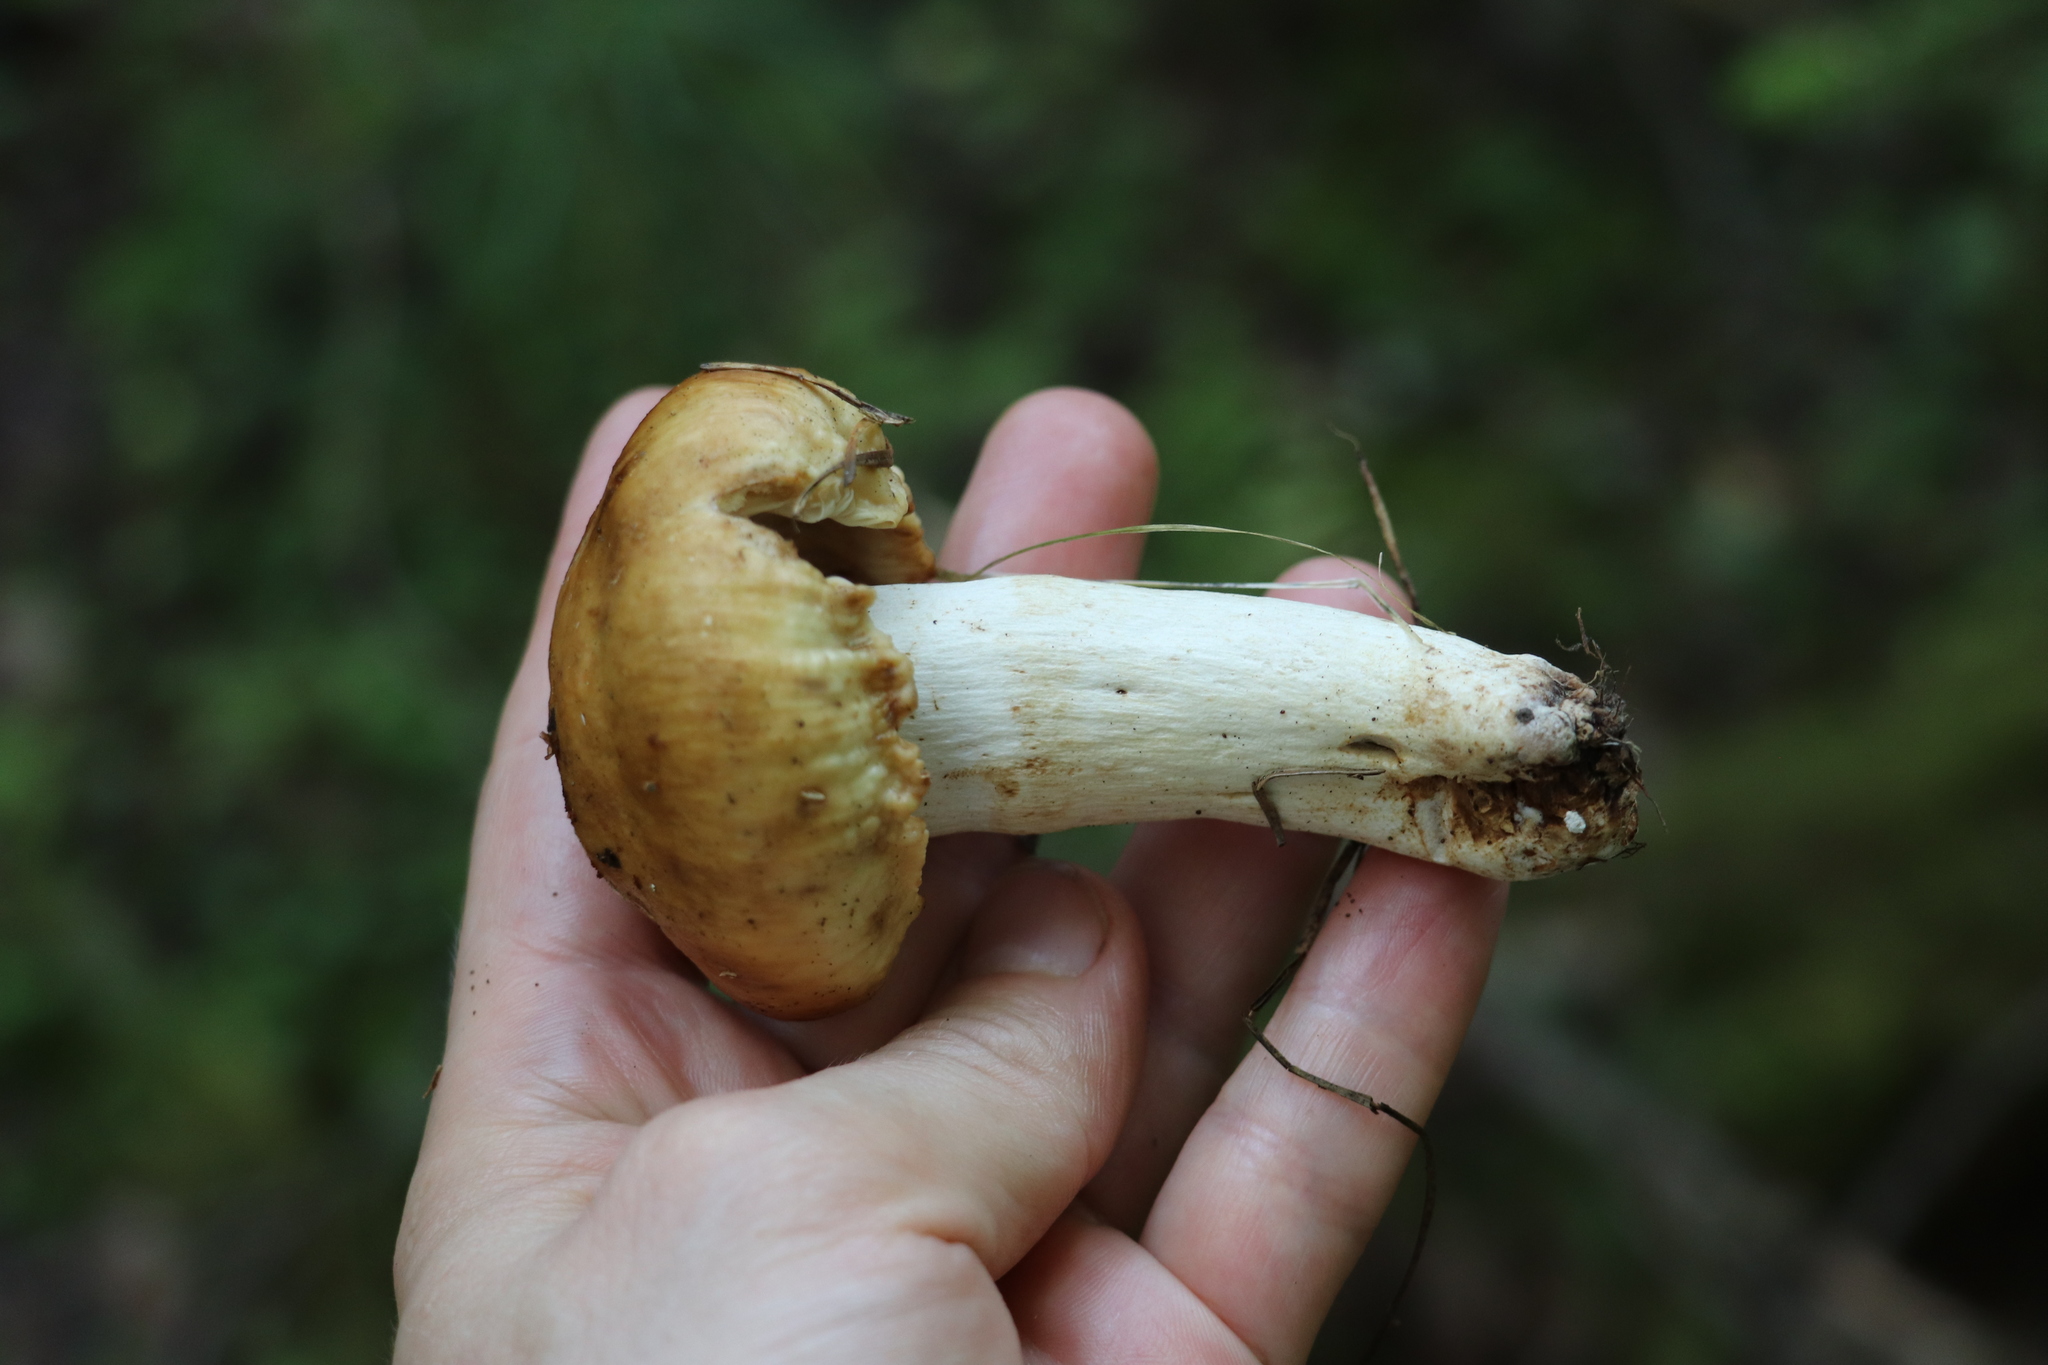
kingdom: Fungi
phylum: Basidiomycota
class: Agaricomycetes
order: Russulales
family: Russulaceae
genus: Russula
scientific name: Russula foetens
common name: Foetid russula
